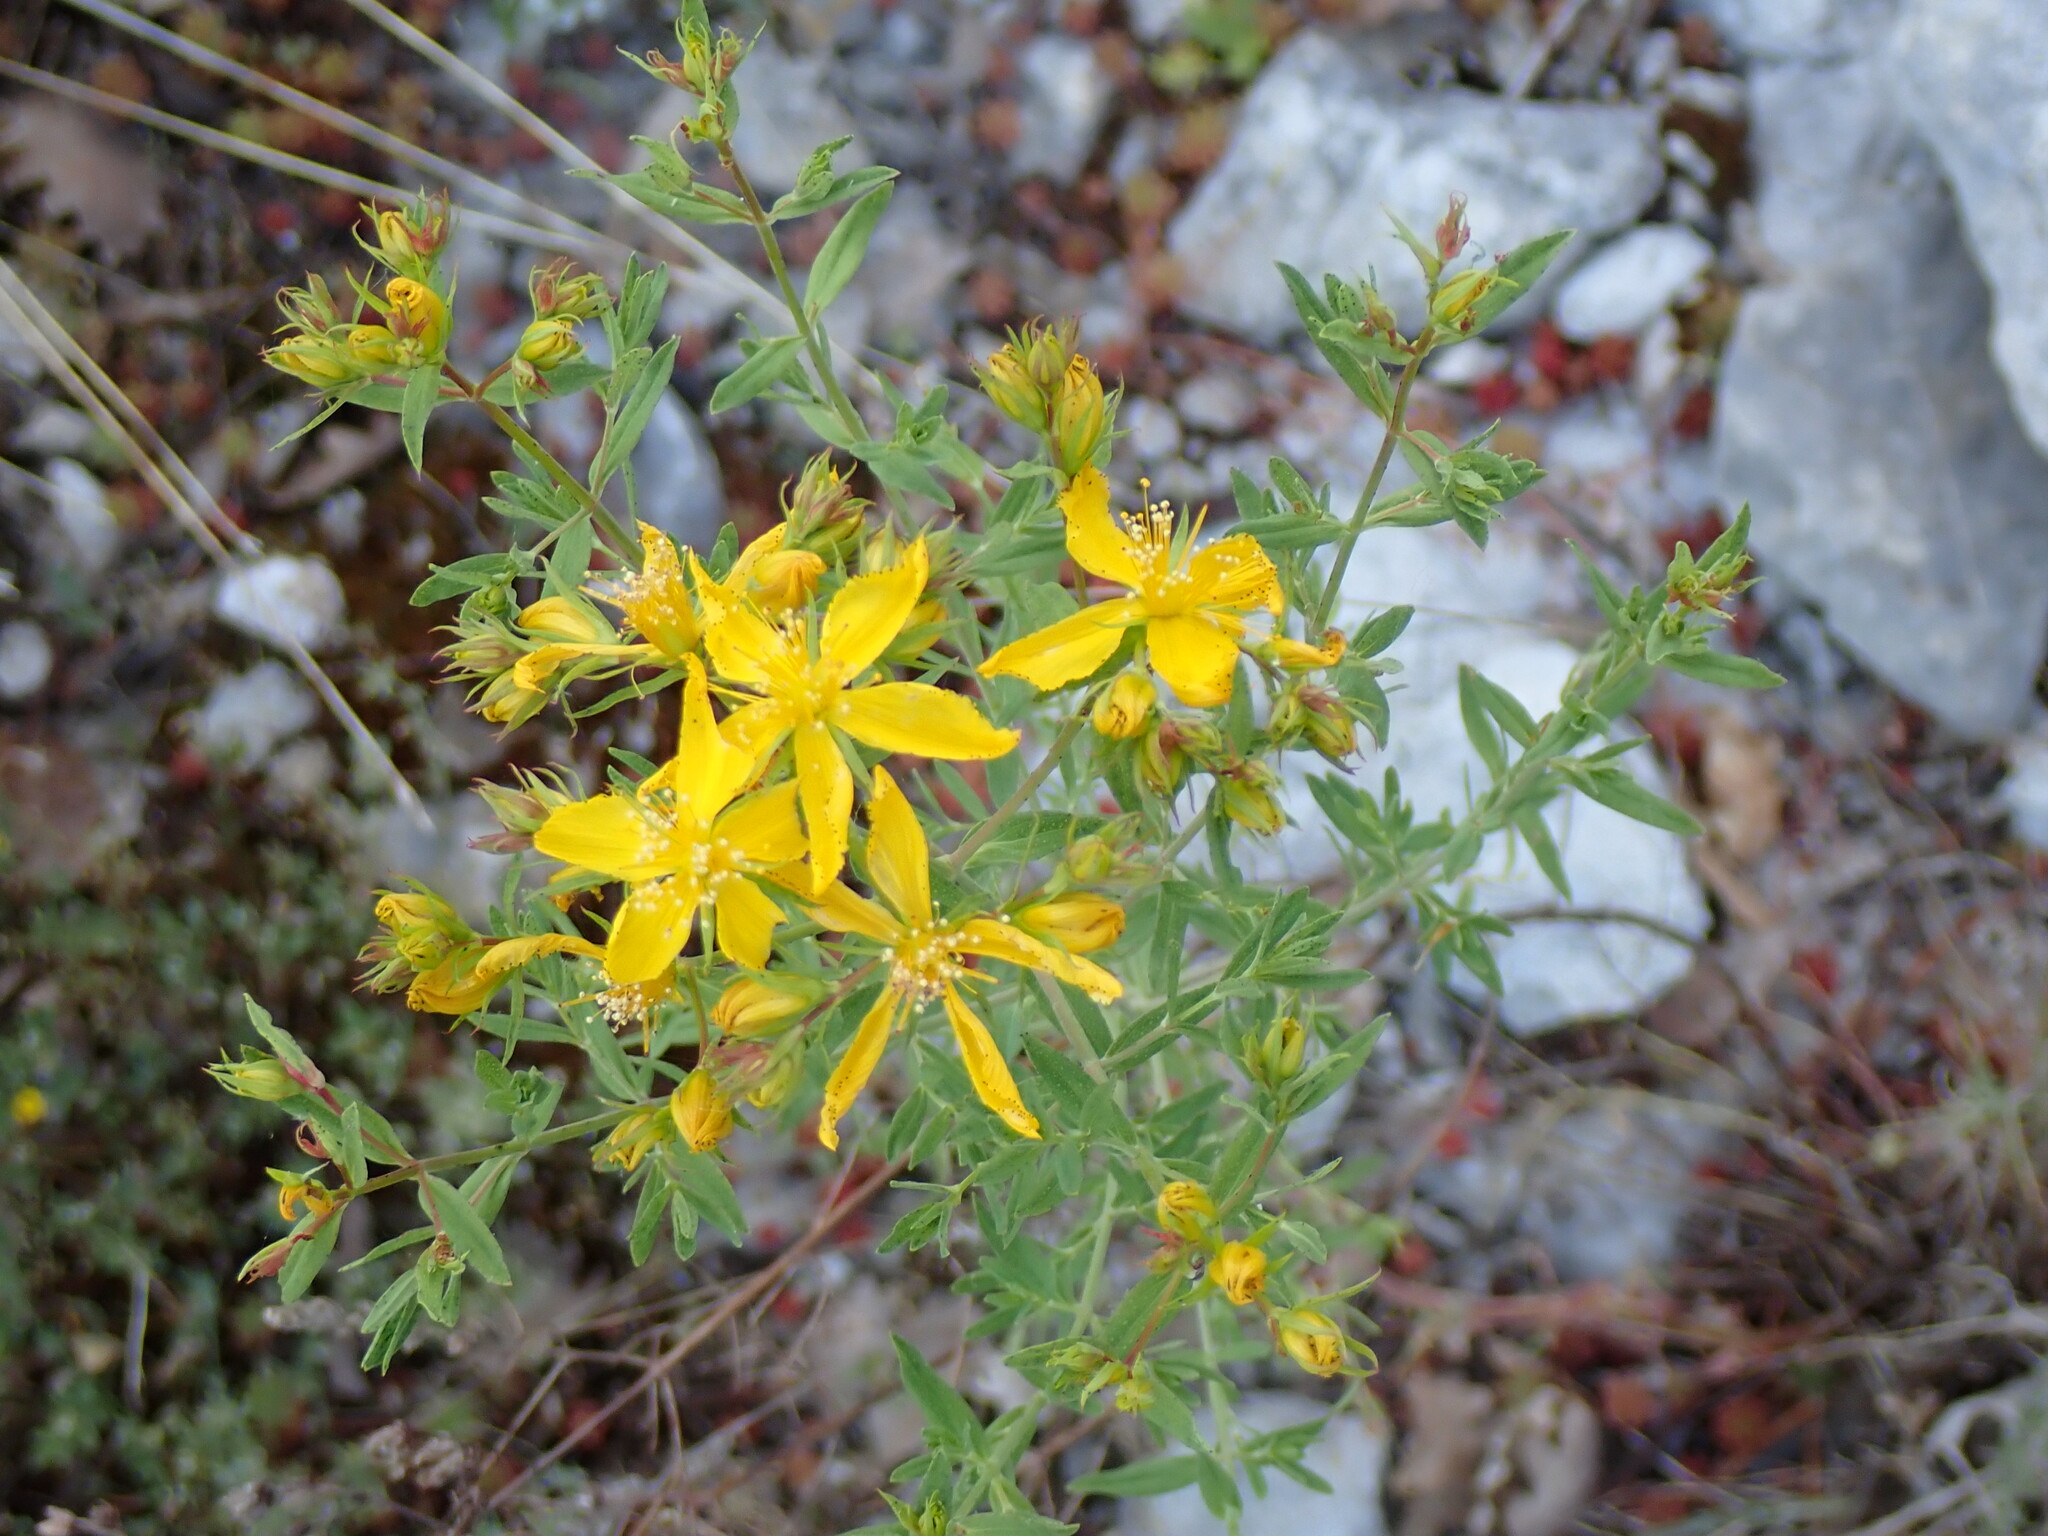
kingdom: Plantae
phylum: Tracheophyta
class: Magnoliopsida
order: Malpighiales
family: Hypericaceae
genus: Hypericum
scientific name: Hypericum perforatum
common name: Common st. johnswort
